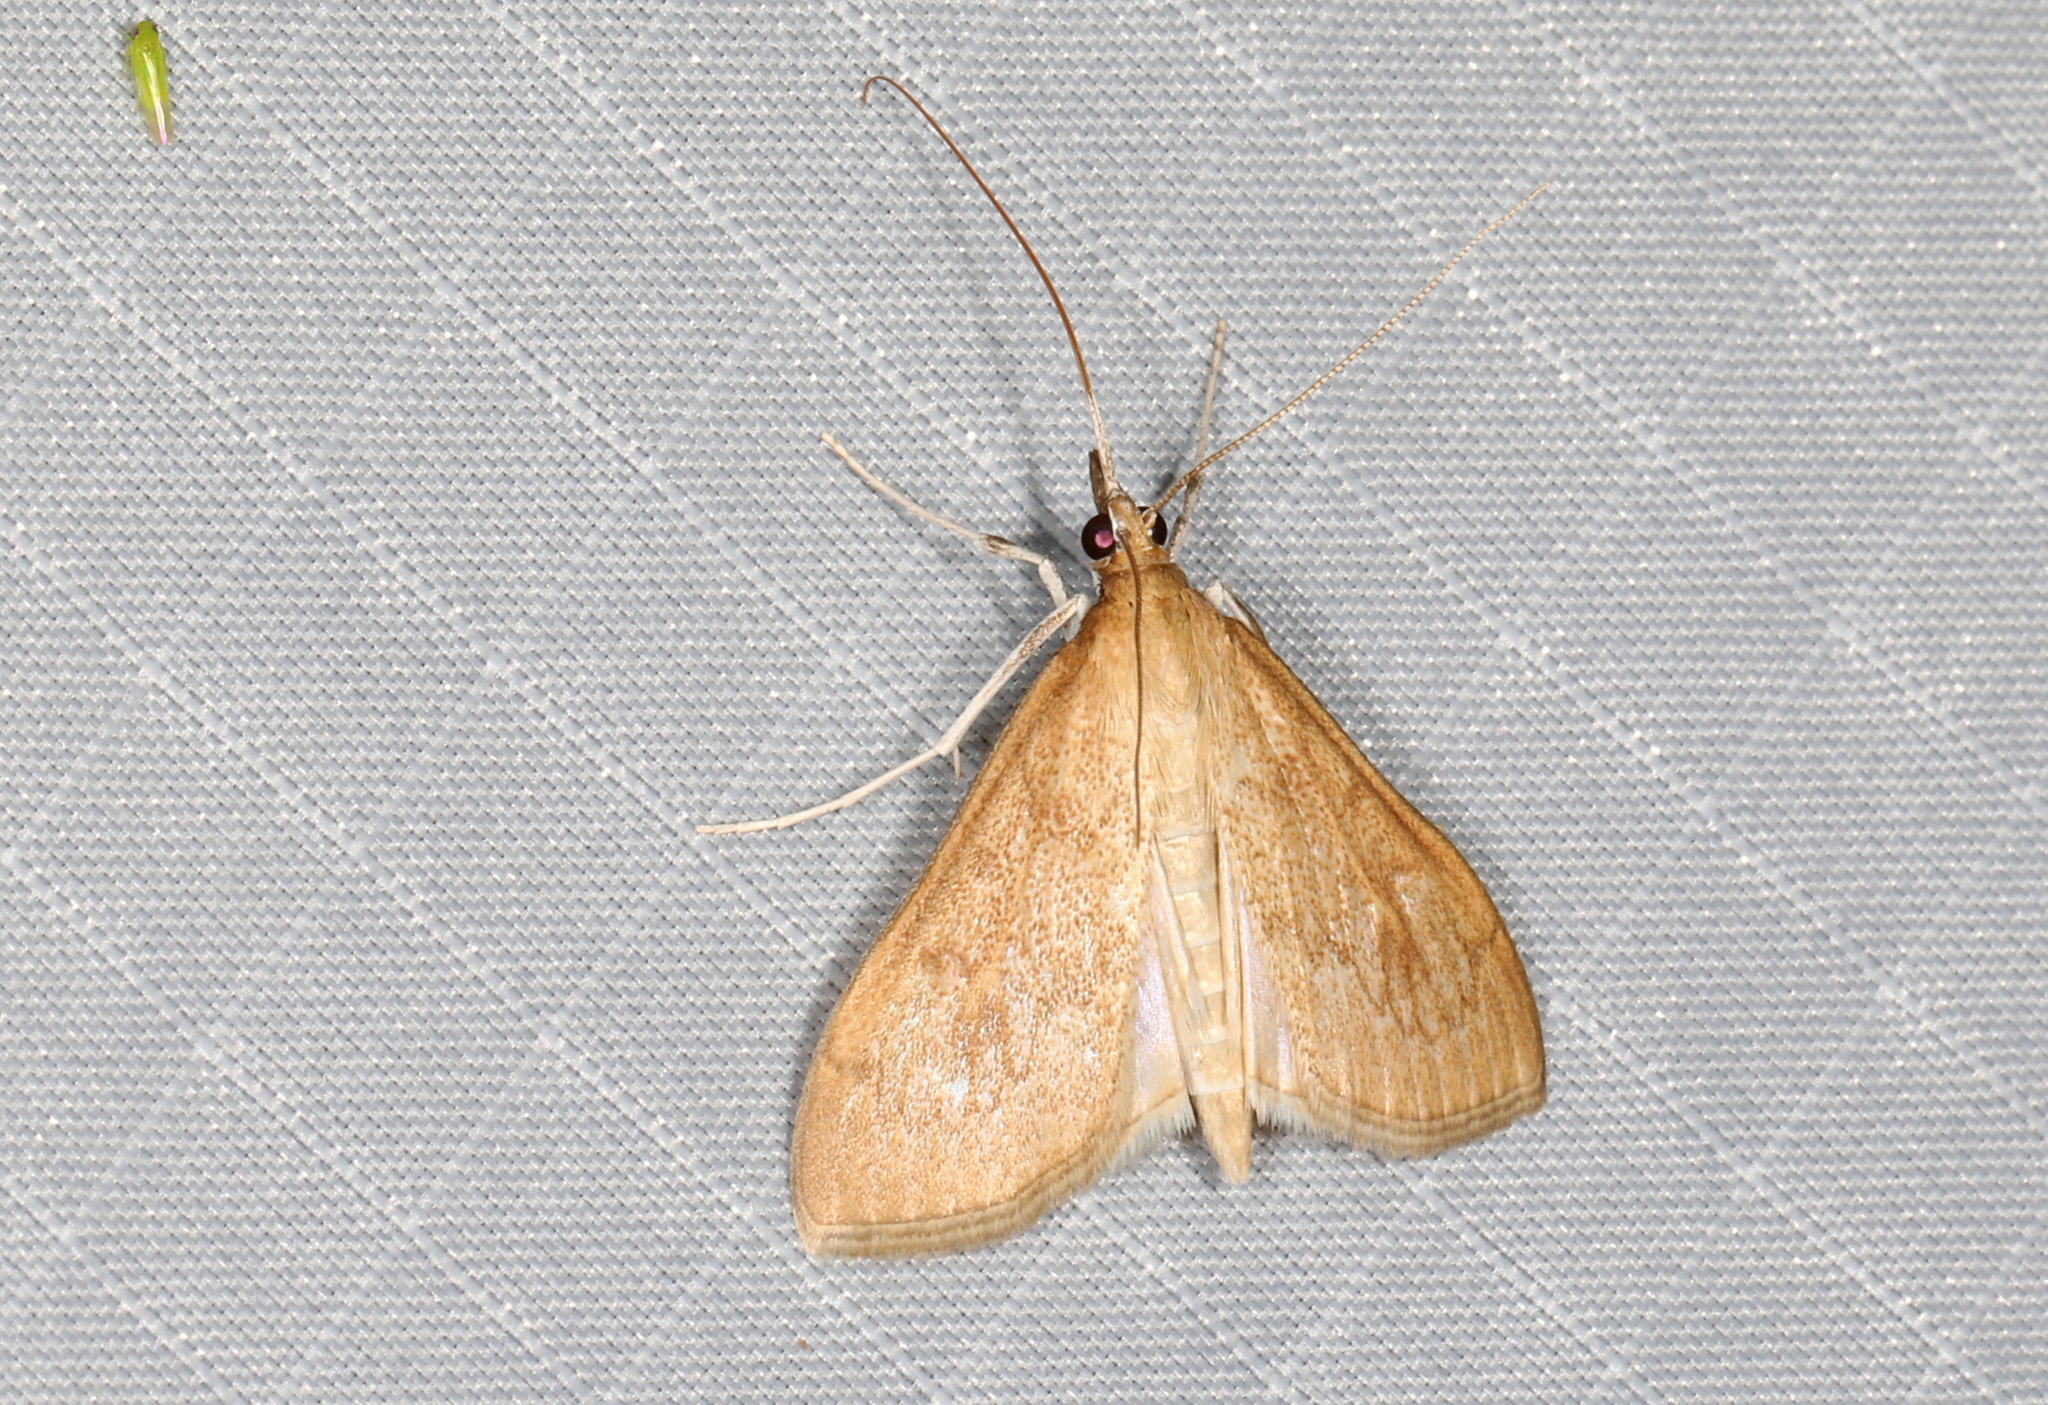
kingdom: Animalia
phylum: Arthropoda
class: Insecta
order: Lepidoptera
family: Crambidae
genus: Saucrobotys
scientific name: Saucrobotys futilalis
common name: Dogbane saucrobotys moth
